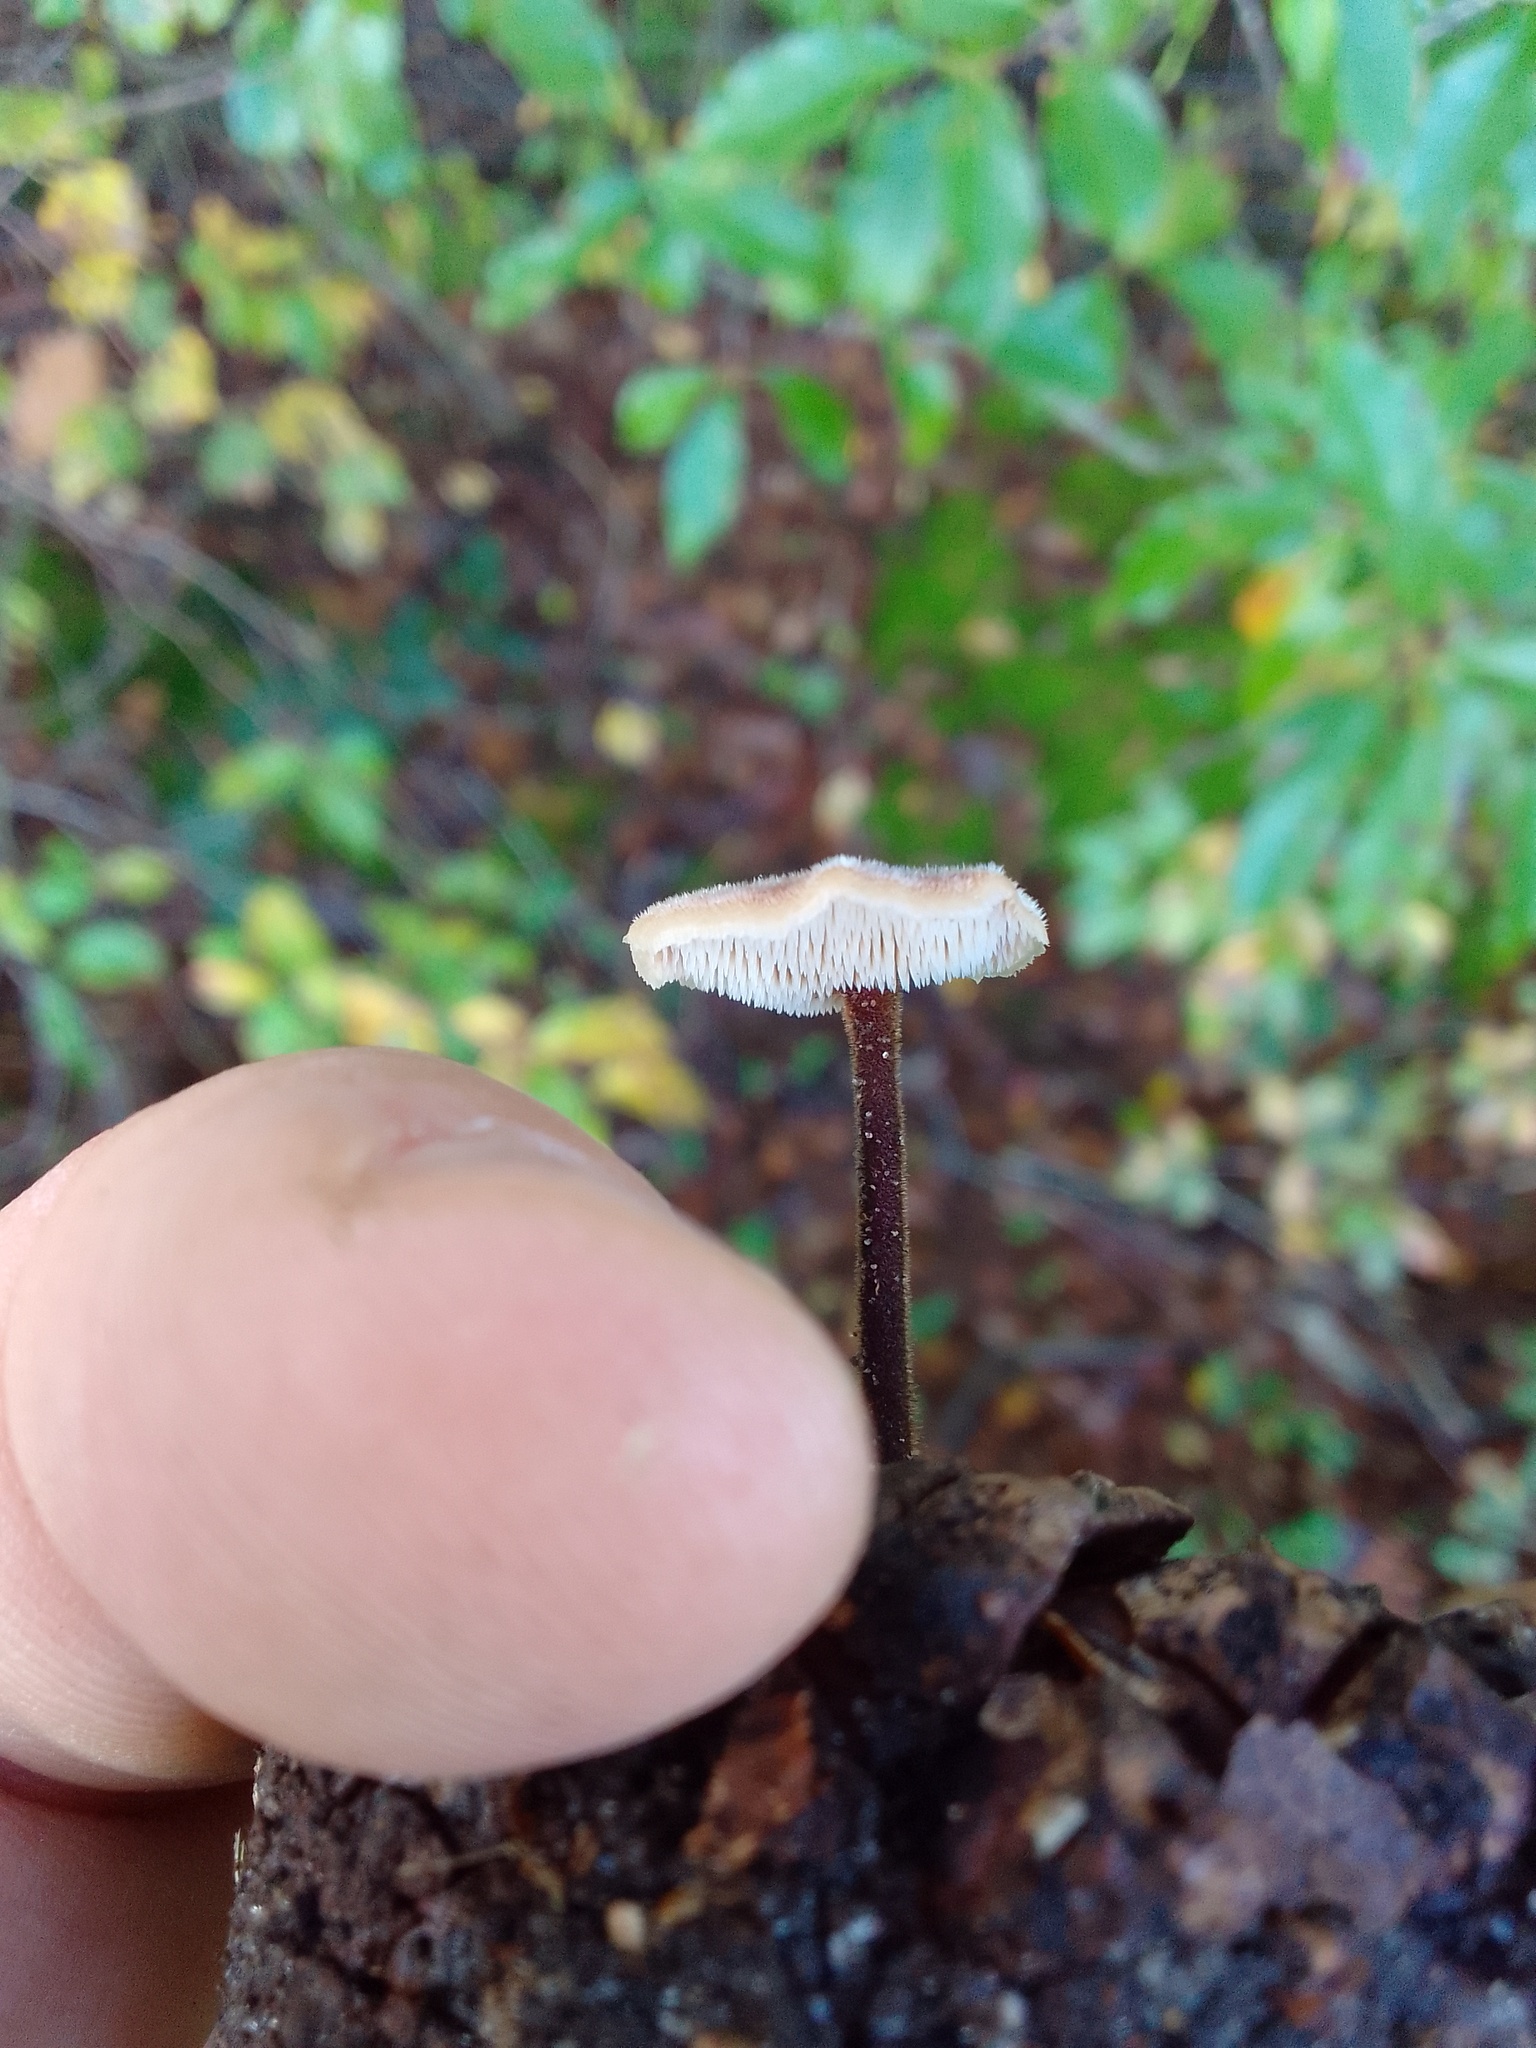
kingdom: Fungi
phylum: Basidiomycota
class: Agaricomycetes
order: Russulales
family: Auriscalpiaceae
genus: Auriscalpium
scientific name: Auriscalpium vulgare
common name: Earpick fungus
